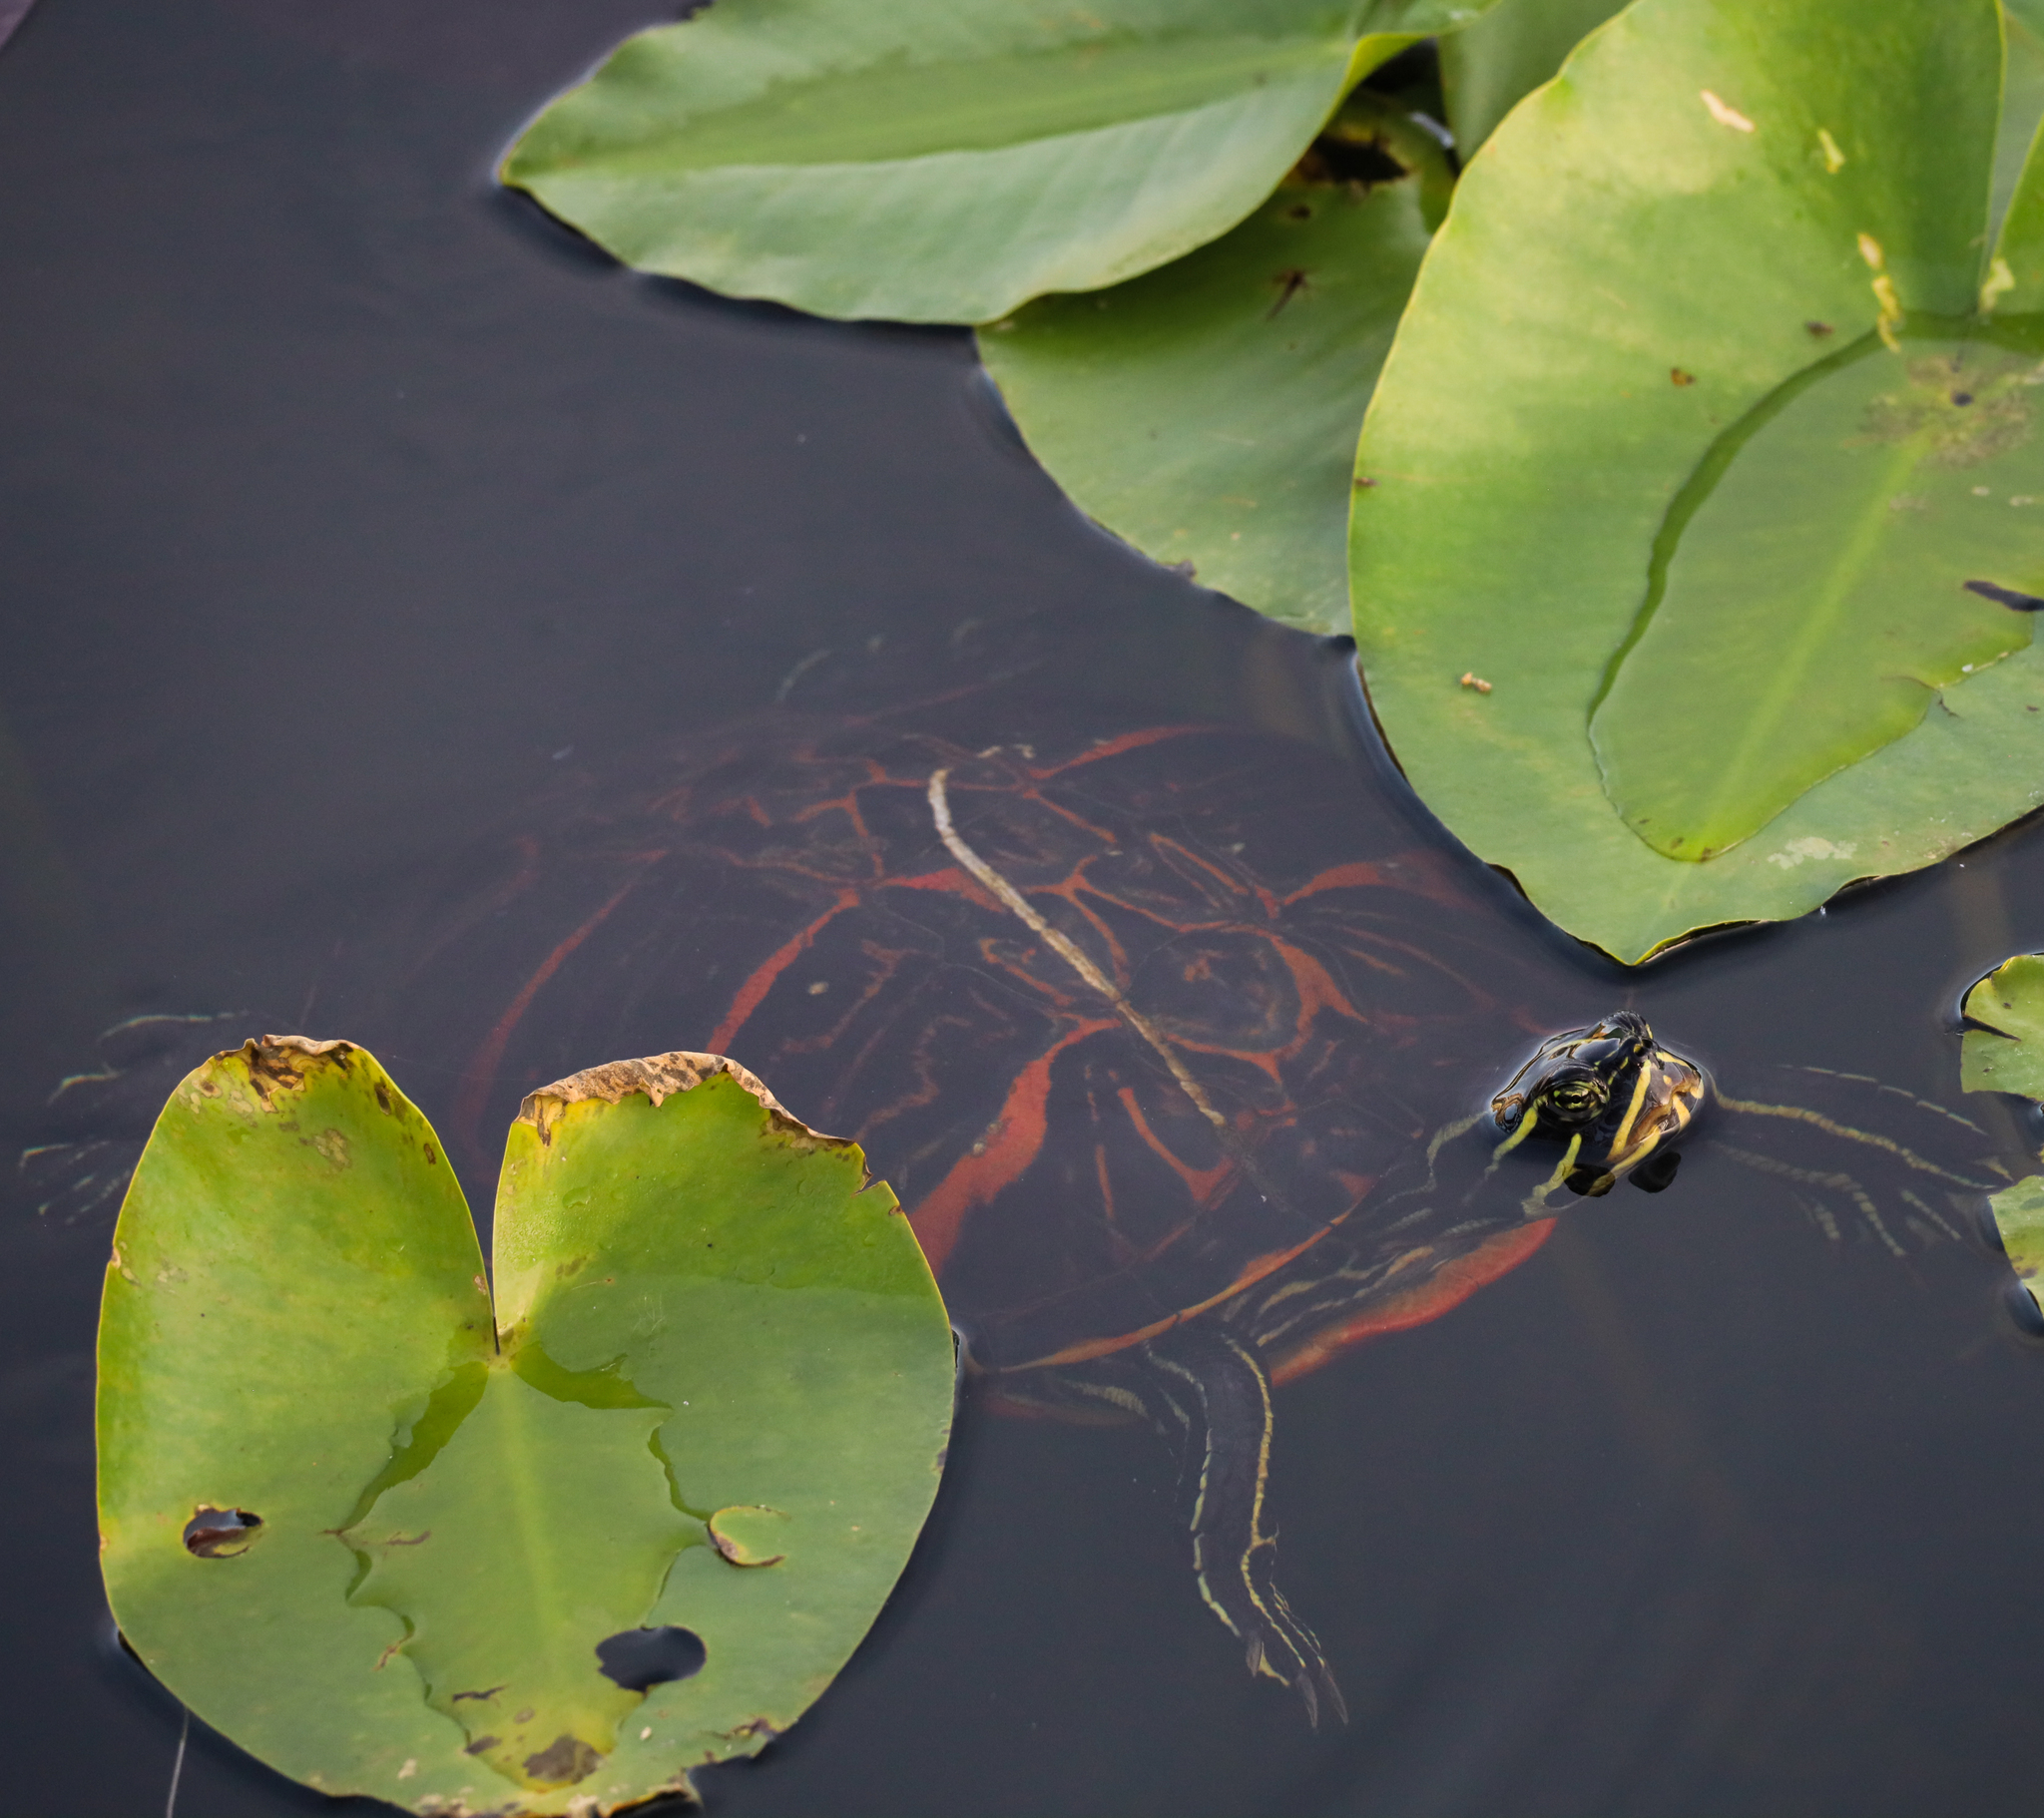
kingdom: Animalia
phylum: Chordata
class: Testudines
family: Emydidae
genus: Pseudemys
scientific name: Pseudemys nelsoni
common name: Florida red-bellied turtle
